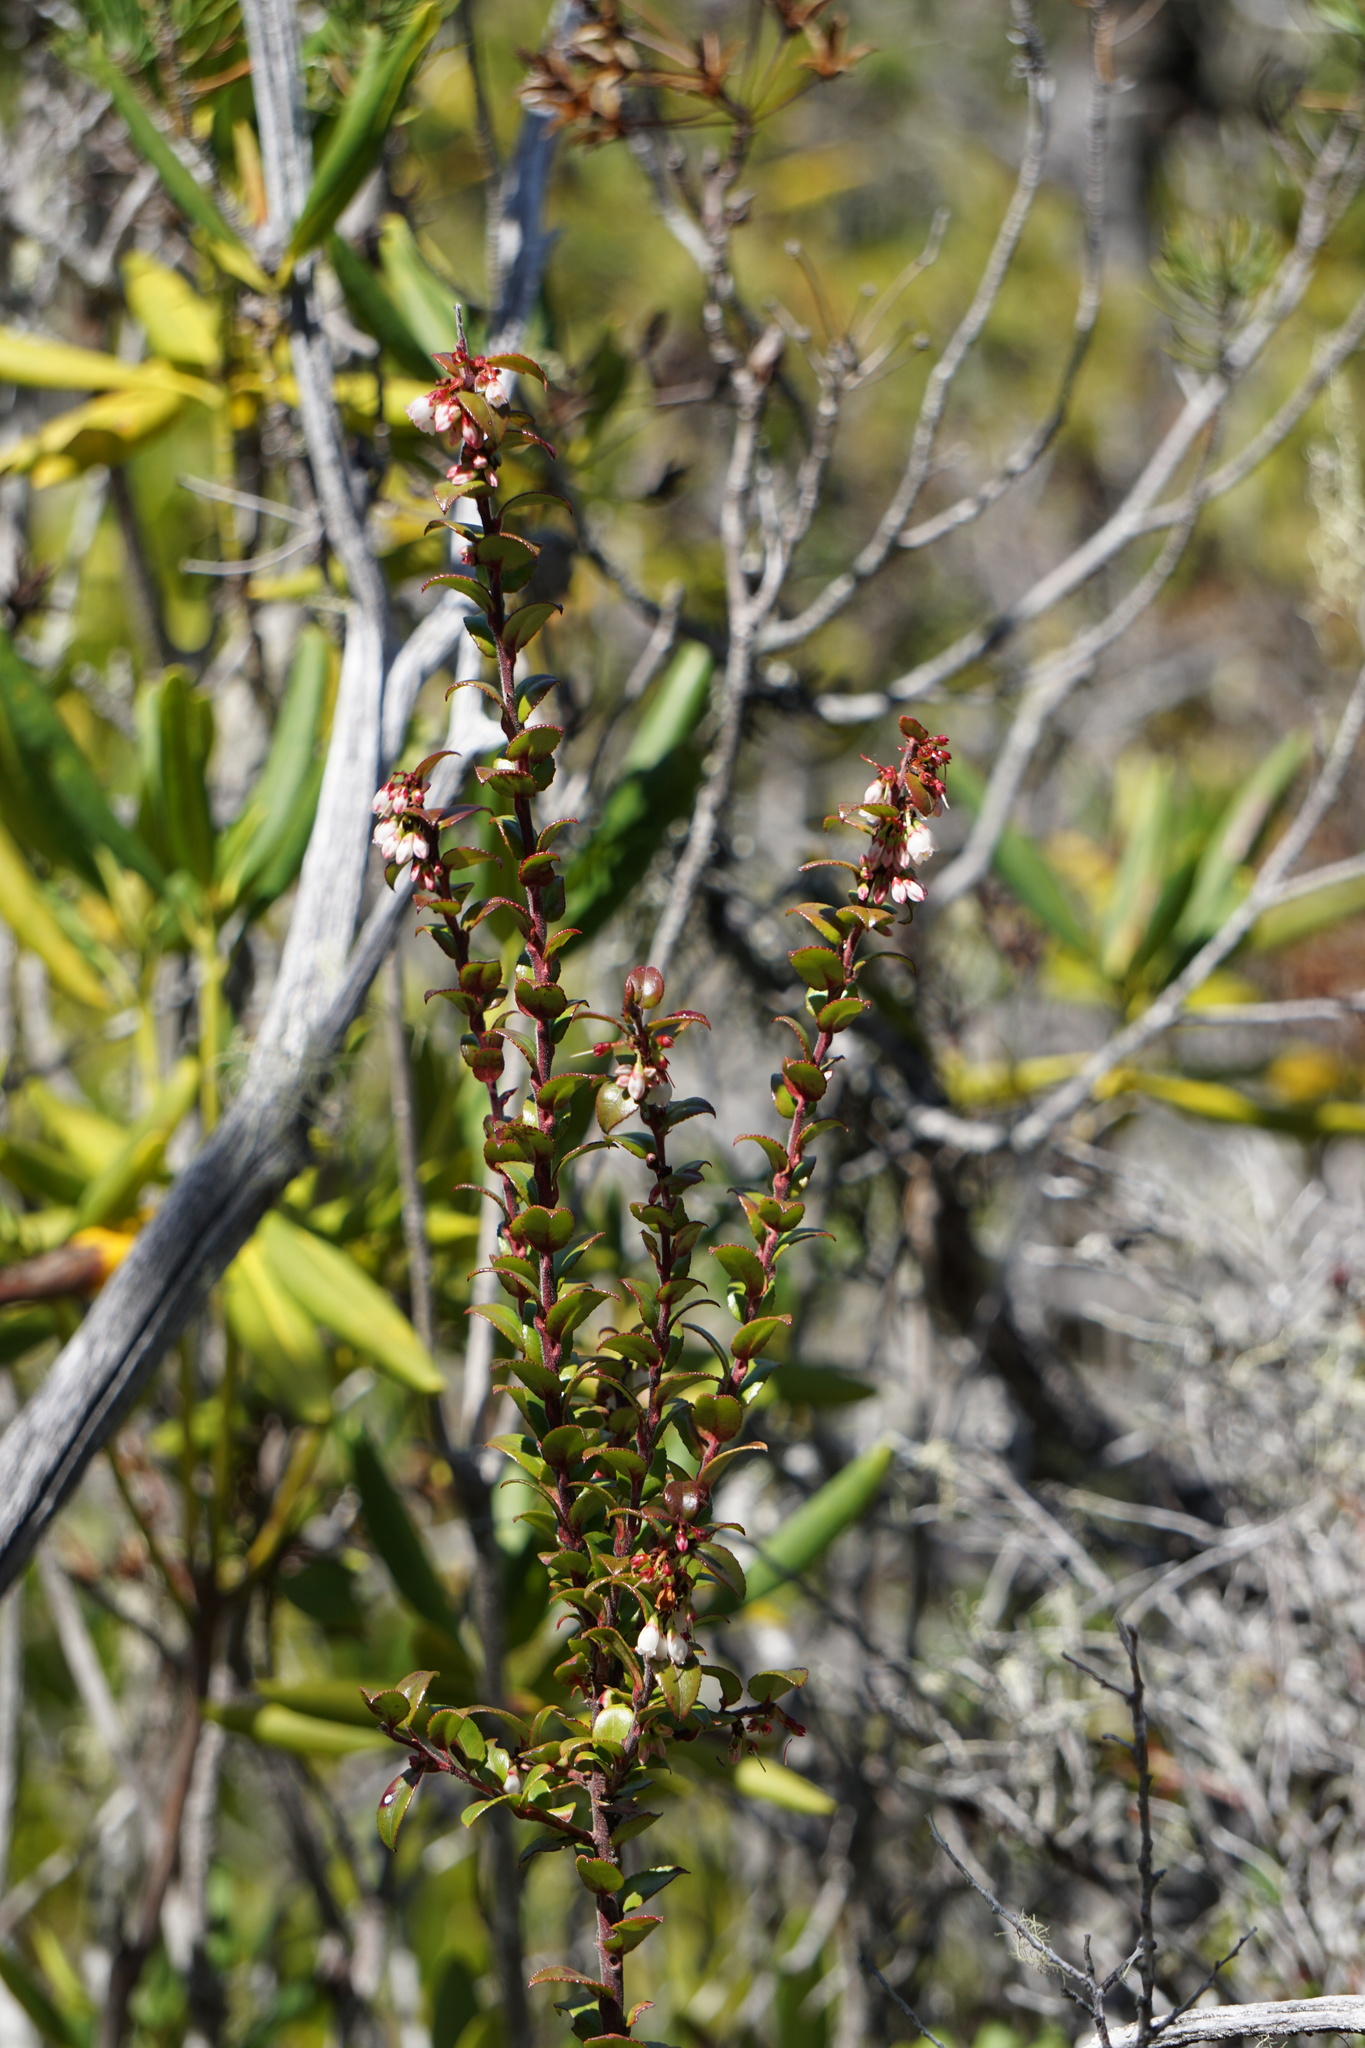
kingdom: Plantae
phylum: Tracheophyta
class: Magnoliopsida
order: Ericales
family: Ericaceae
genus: Vaccinium
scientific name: Vaccinium ovatum
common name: California-huckleberry
